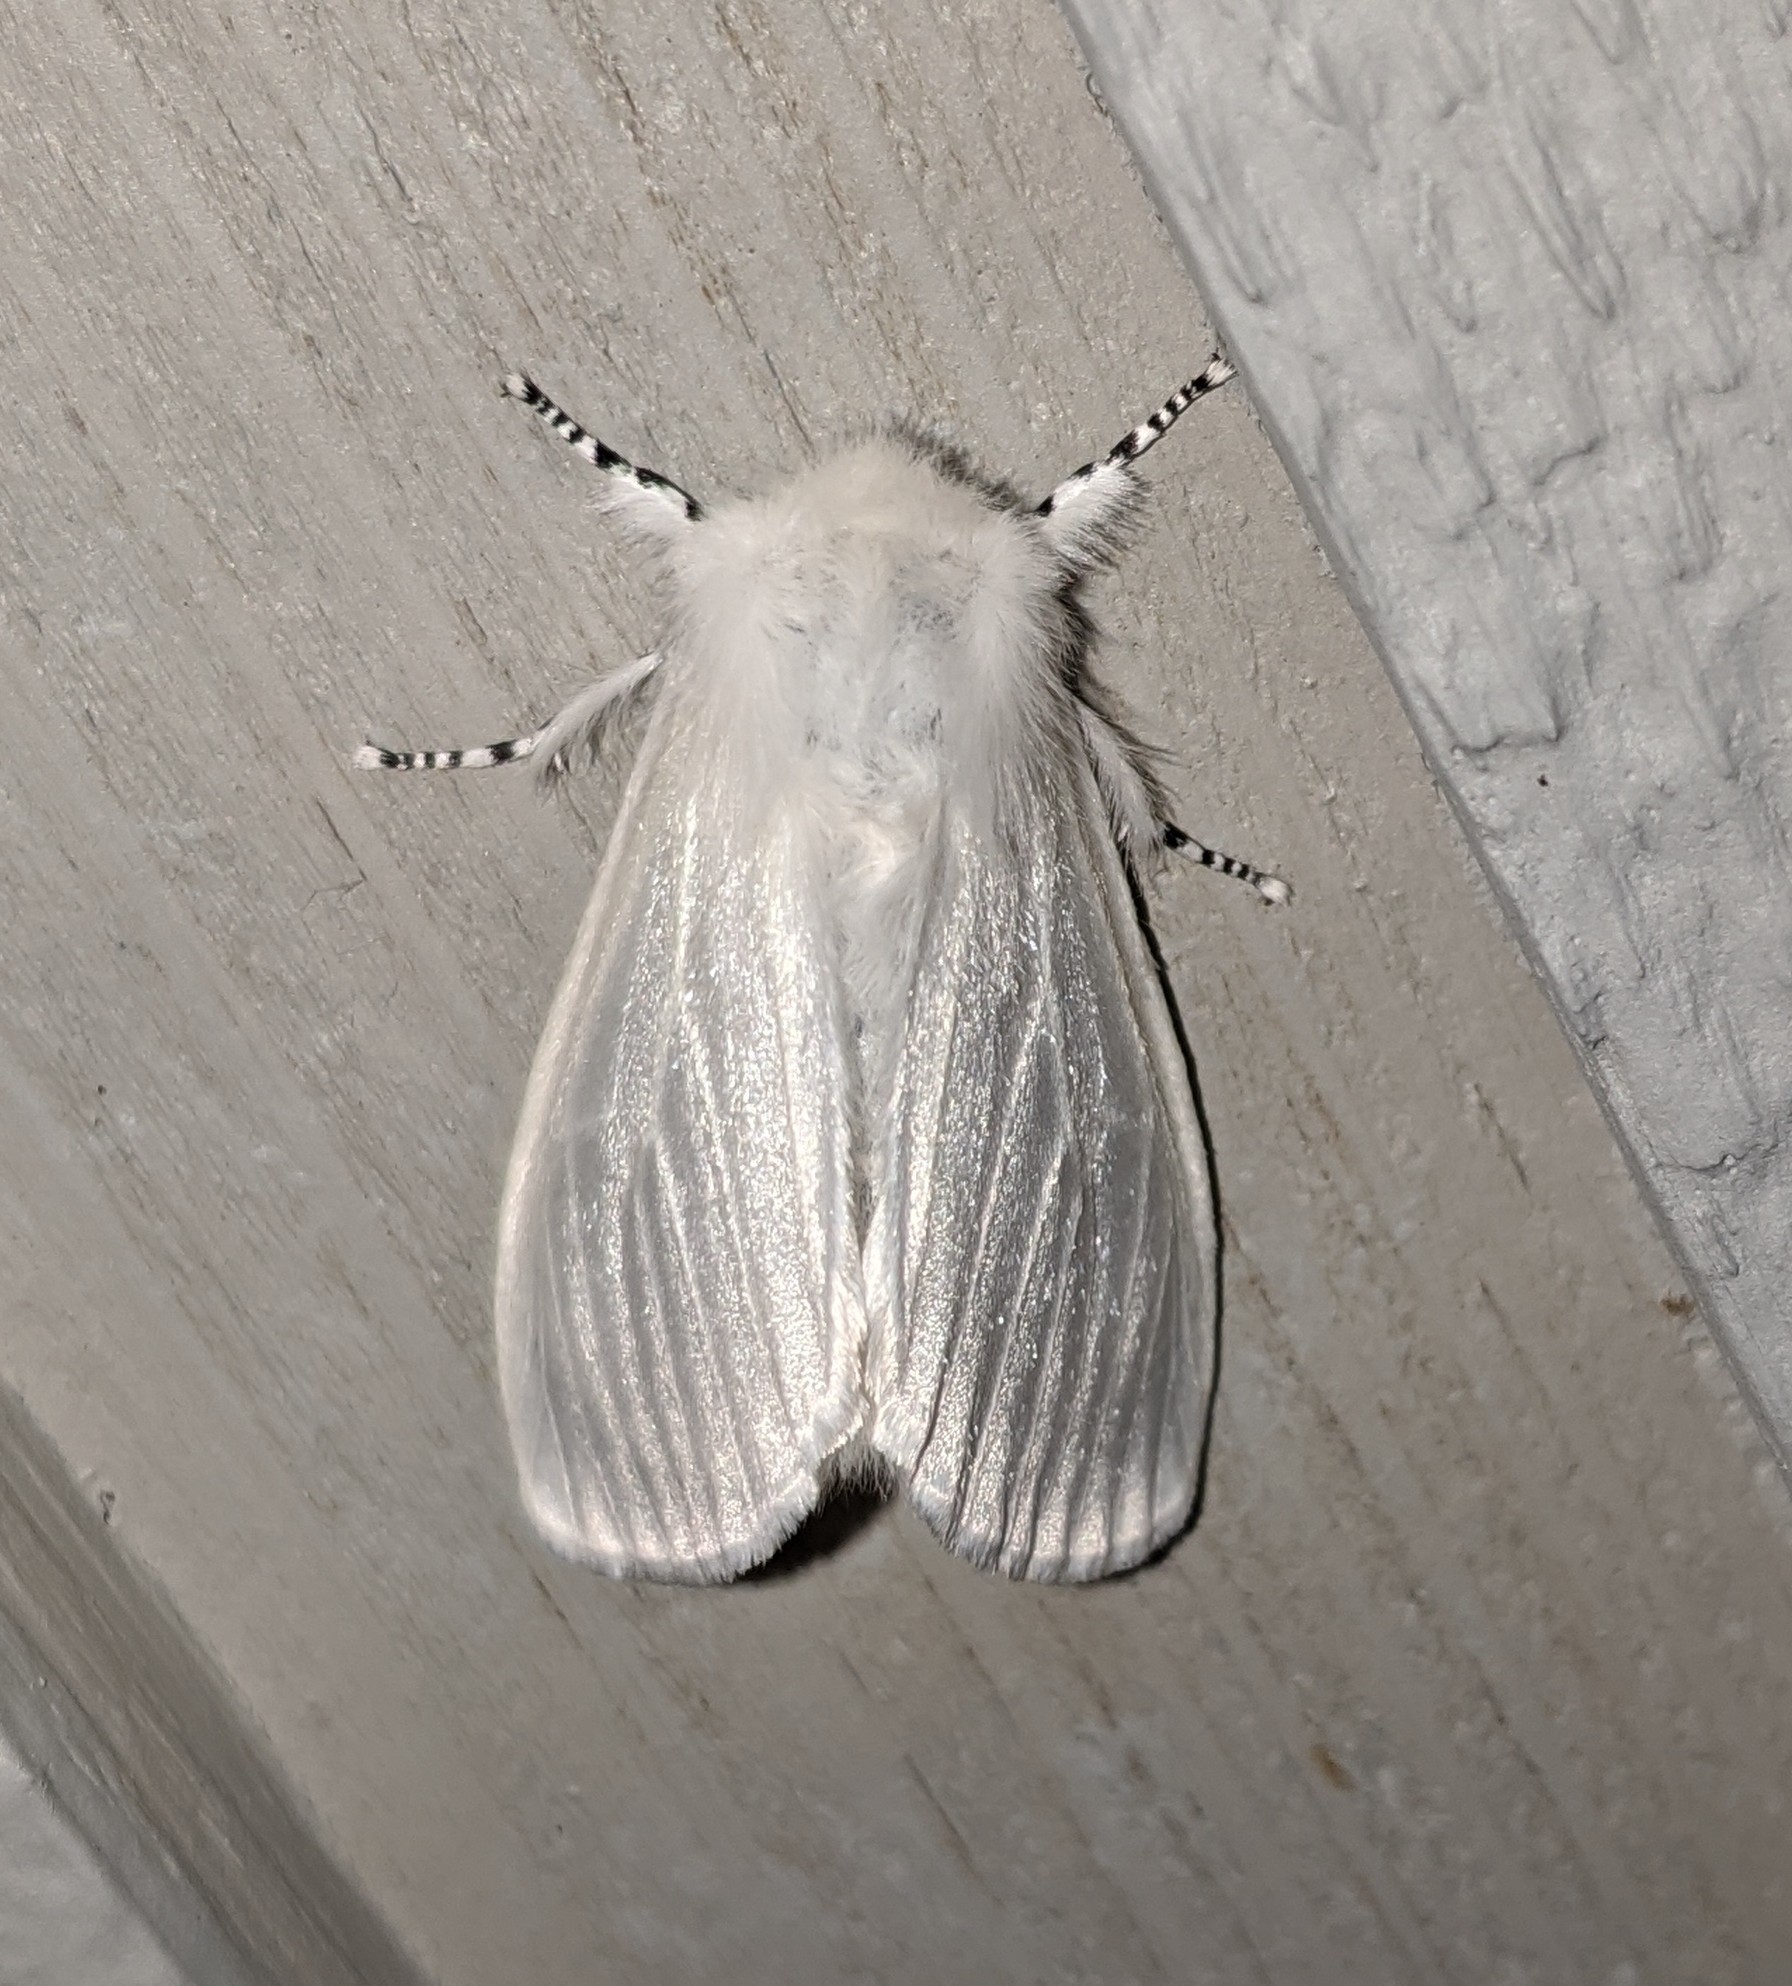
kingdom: Animalia
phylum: Arthropoda
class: Insecta
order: Lepidoptera
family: Erebidae
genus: Leucoma
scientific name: Leucoma salicis
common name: White satin moth
